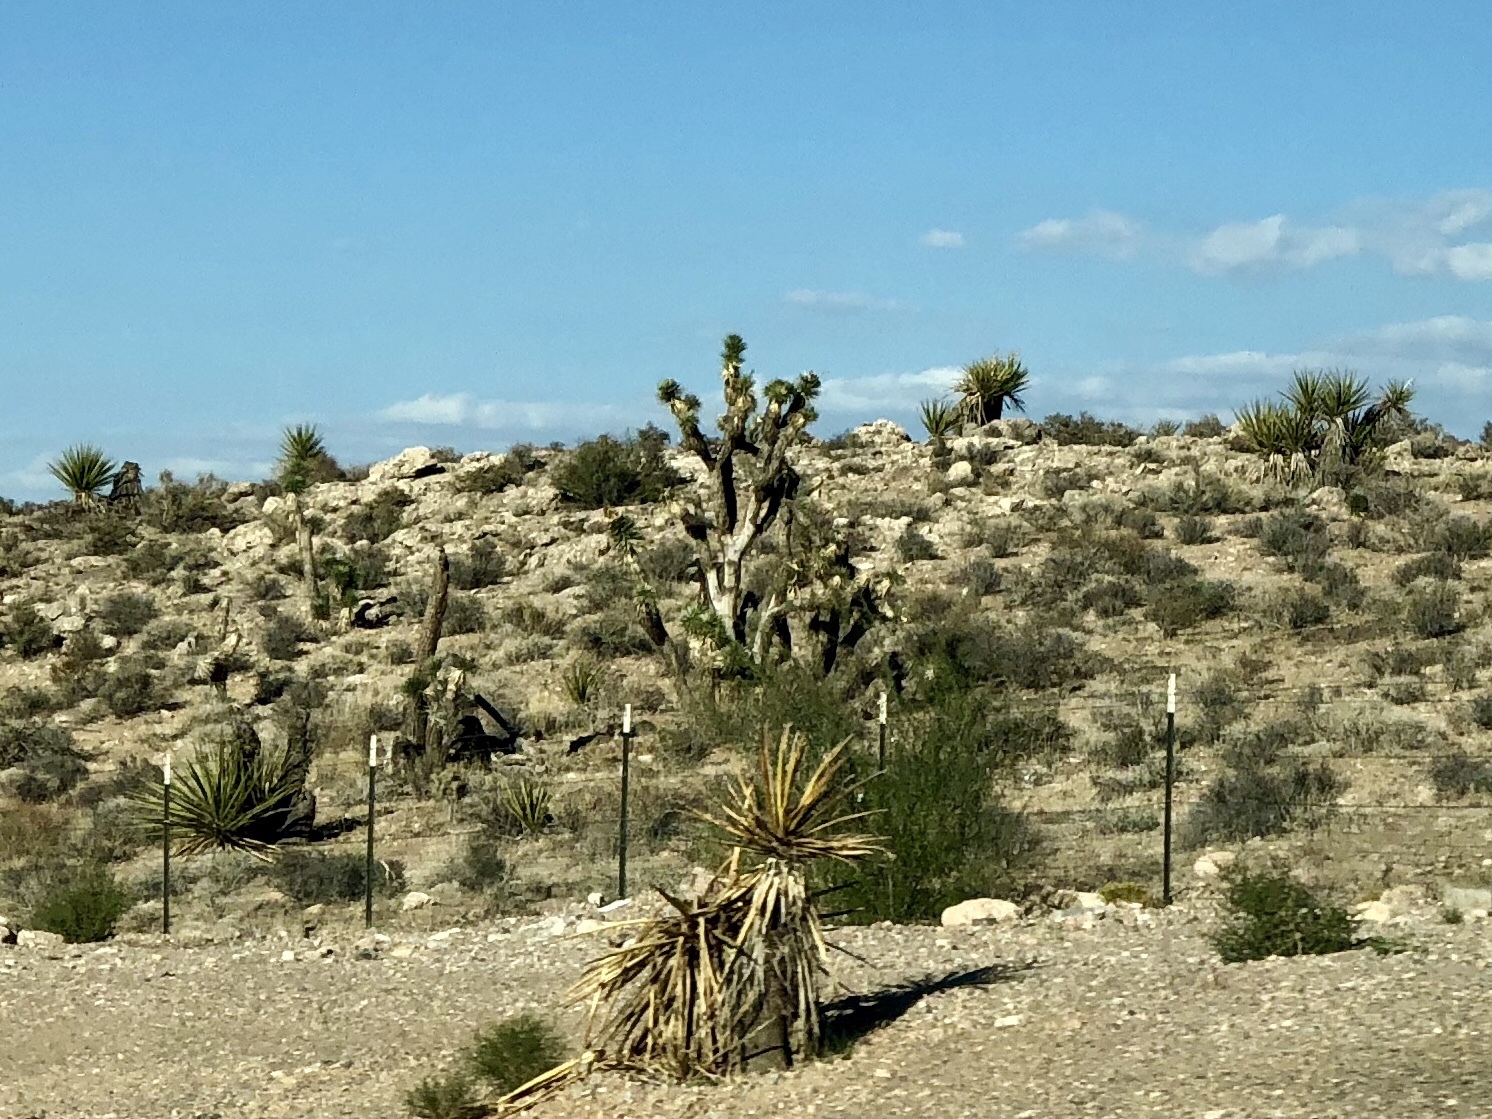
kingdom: Plantae
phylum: Tracheophyta
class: Liliopsida
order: Asparagales
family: Asparagaceae
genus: Yucca
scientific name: Yucca schidigera
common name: Mojave yucca
